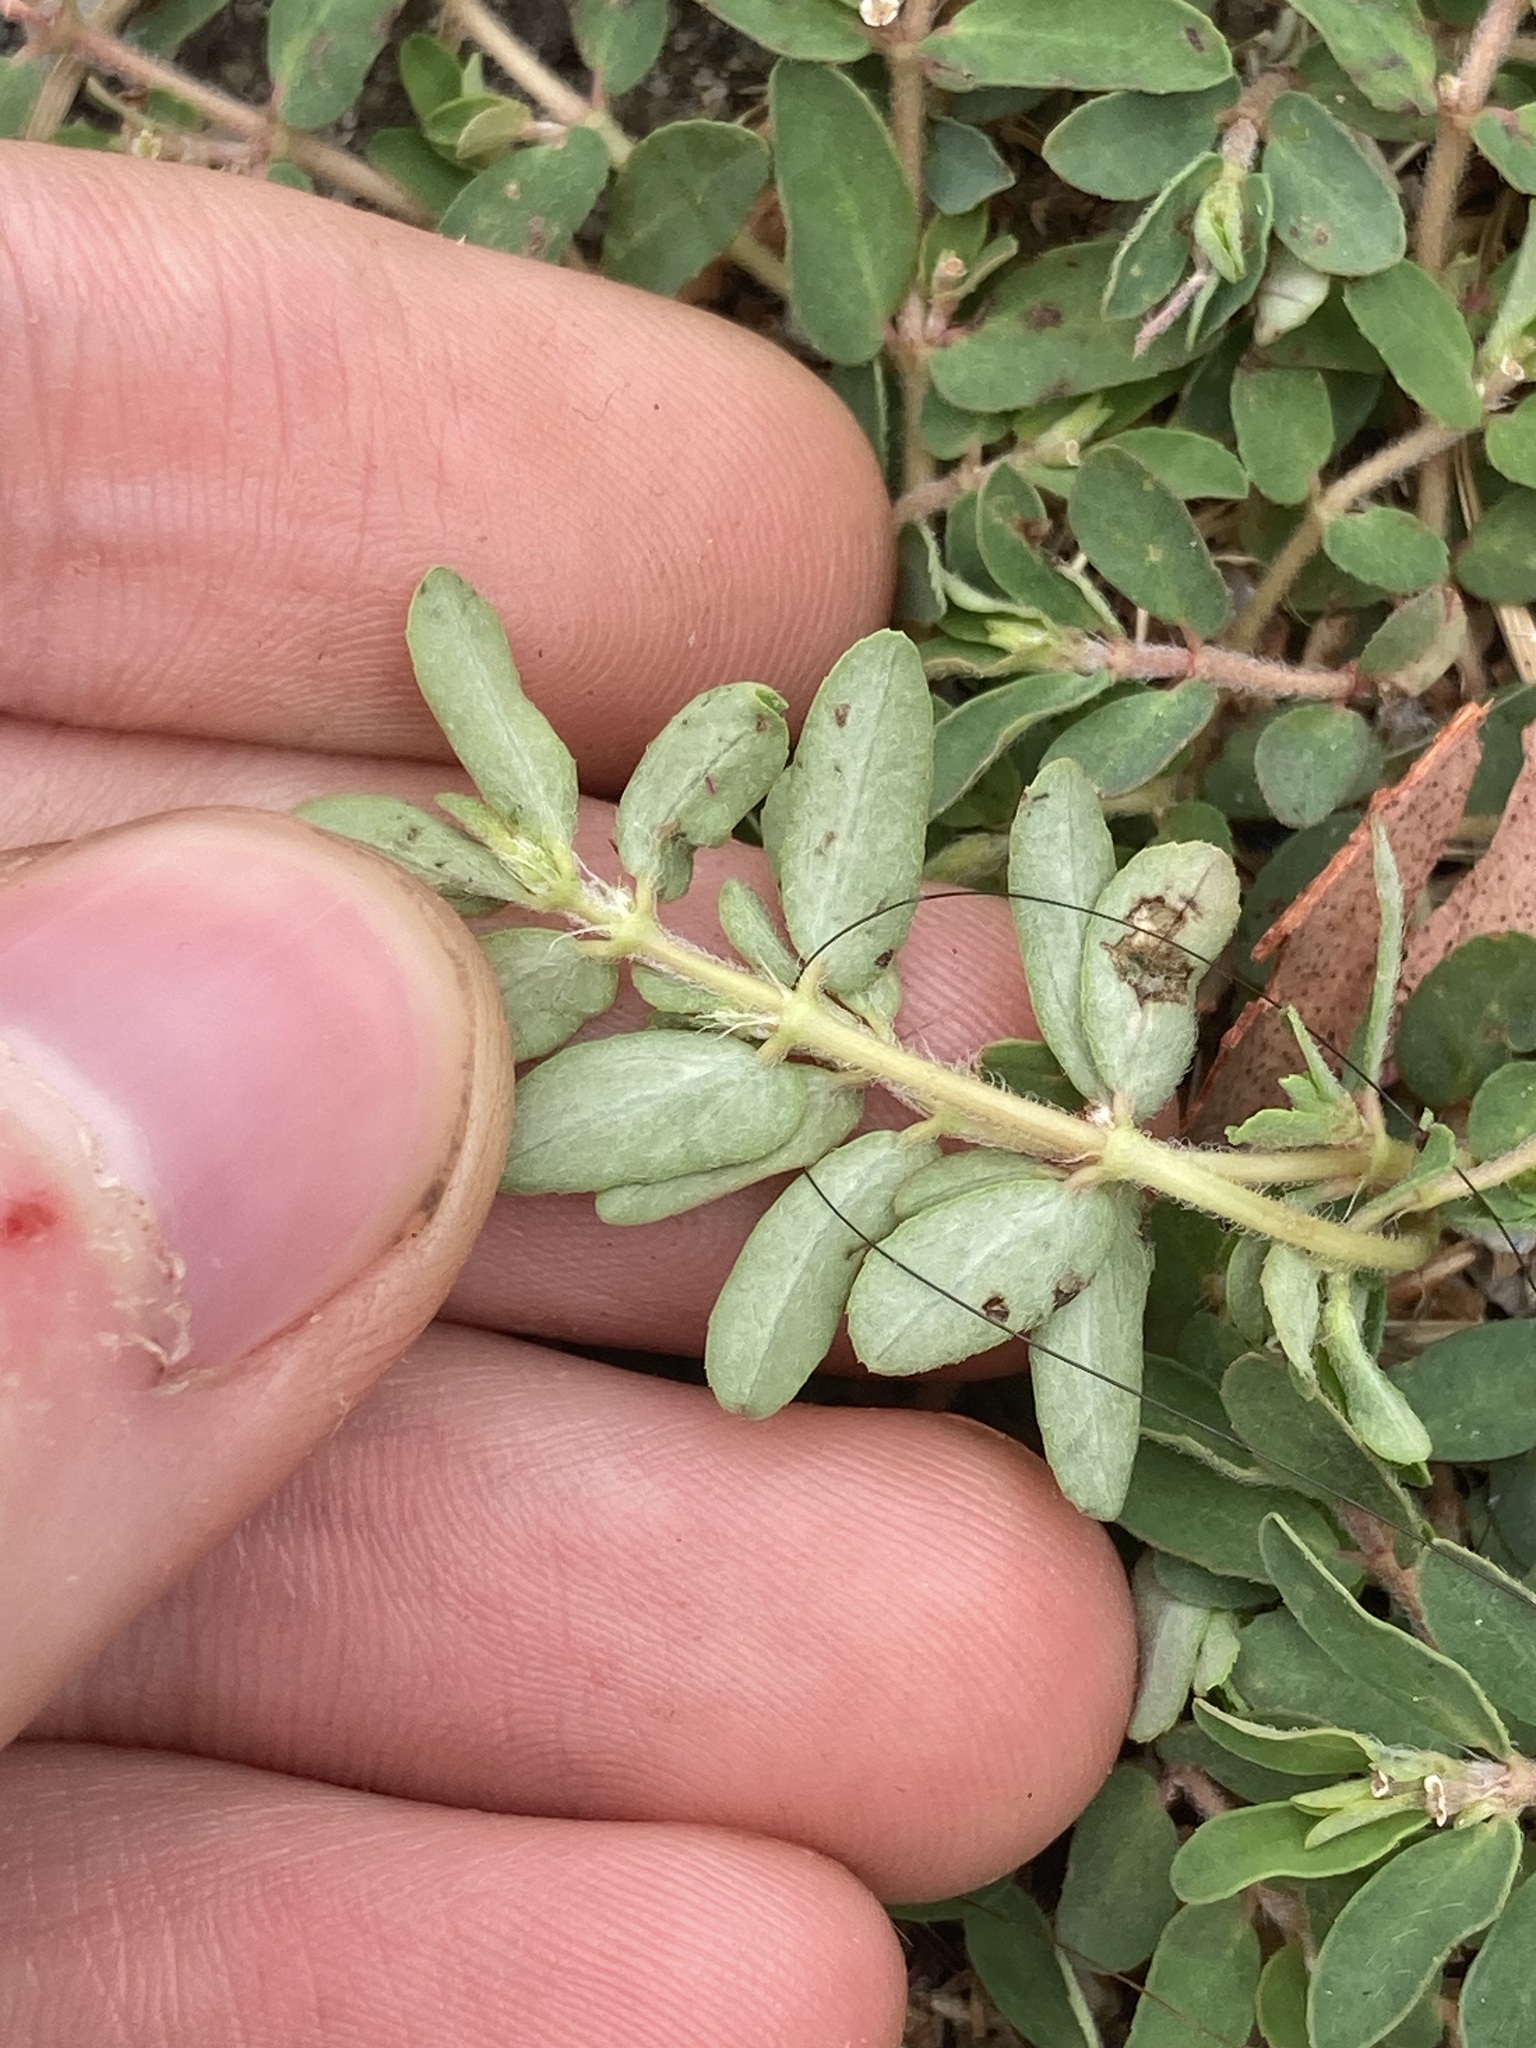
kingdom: Plantae
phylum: Tracheophyta
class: Magnoliopsida
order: Malpighiales
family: Euphorbiaceae
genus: Euphorbia
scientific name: Euphorbia maculata
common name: Spotted spurge
